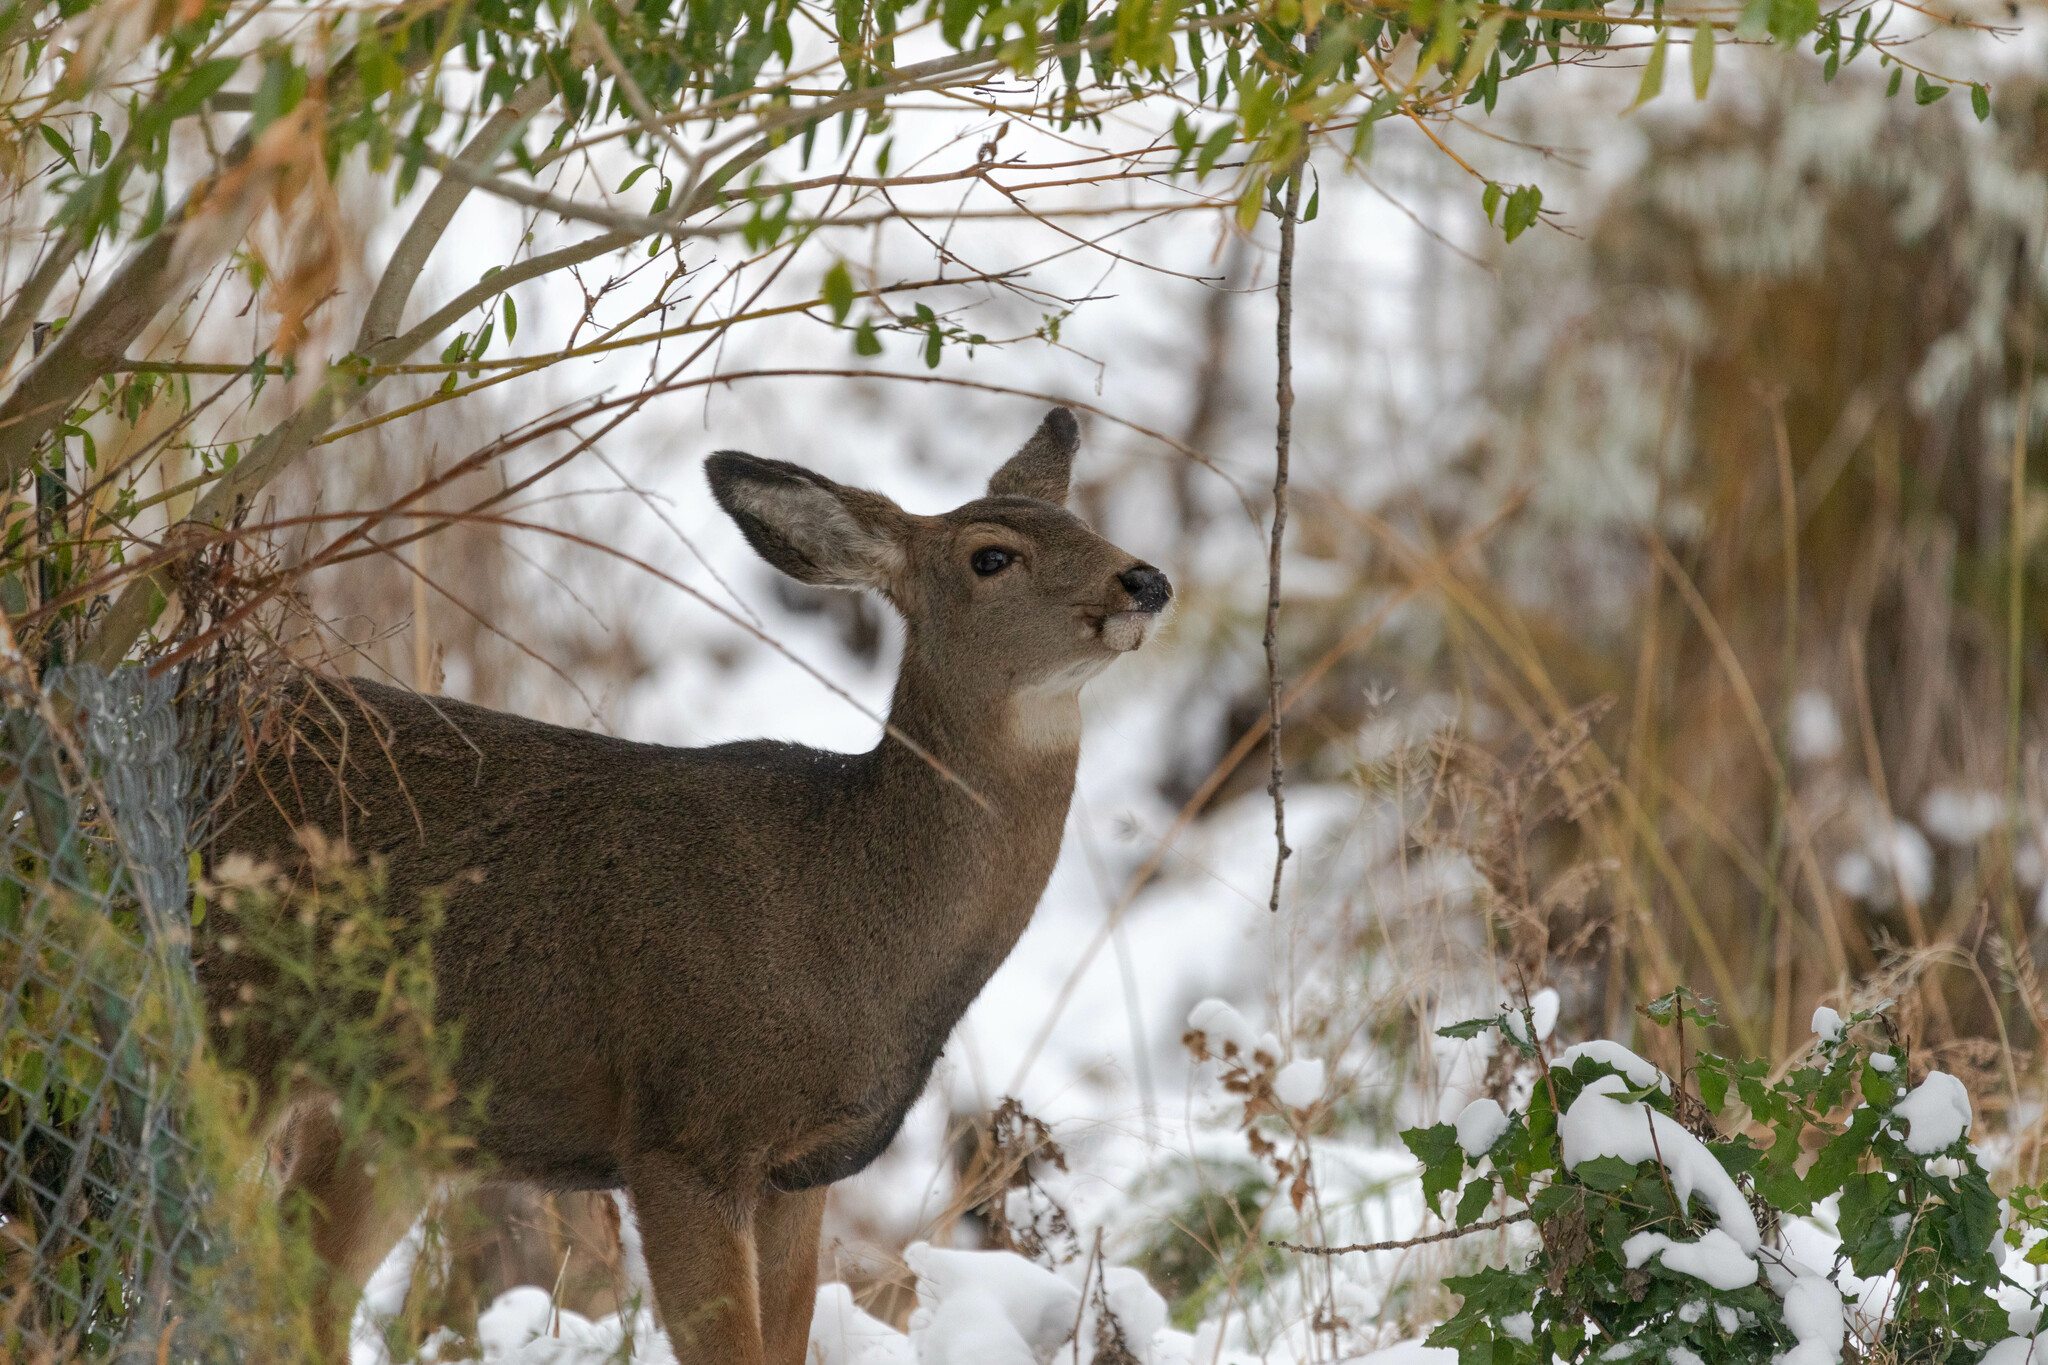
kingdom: Animalia
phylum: Chordata
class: Mammalia
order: Artiodactyla
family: Cervidae
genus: Odocoileus
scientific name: Odocoileus hemionus
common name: Mule deer
